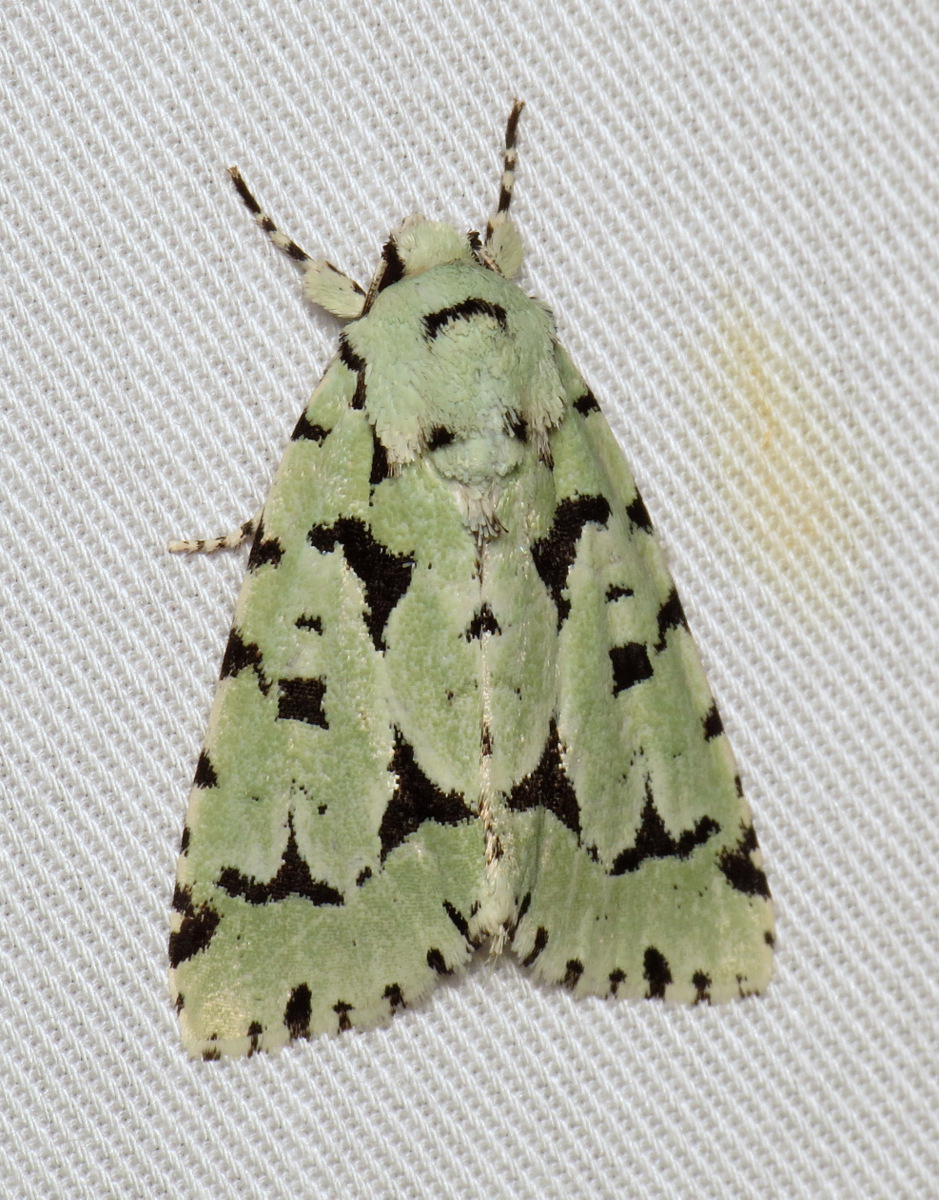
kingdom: Animalia
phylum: Arthropoda
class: Insecta
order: Lepidoptera
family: Noctuidae
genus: Acronicta
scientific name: Acronicta fallax
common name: Green marvel
